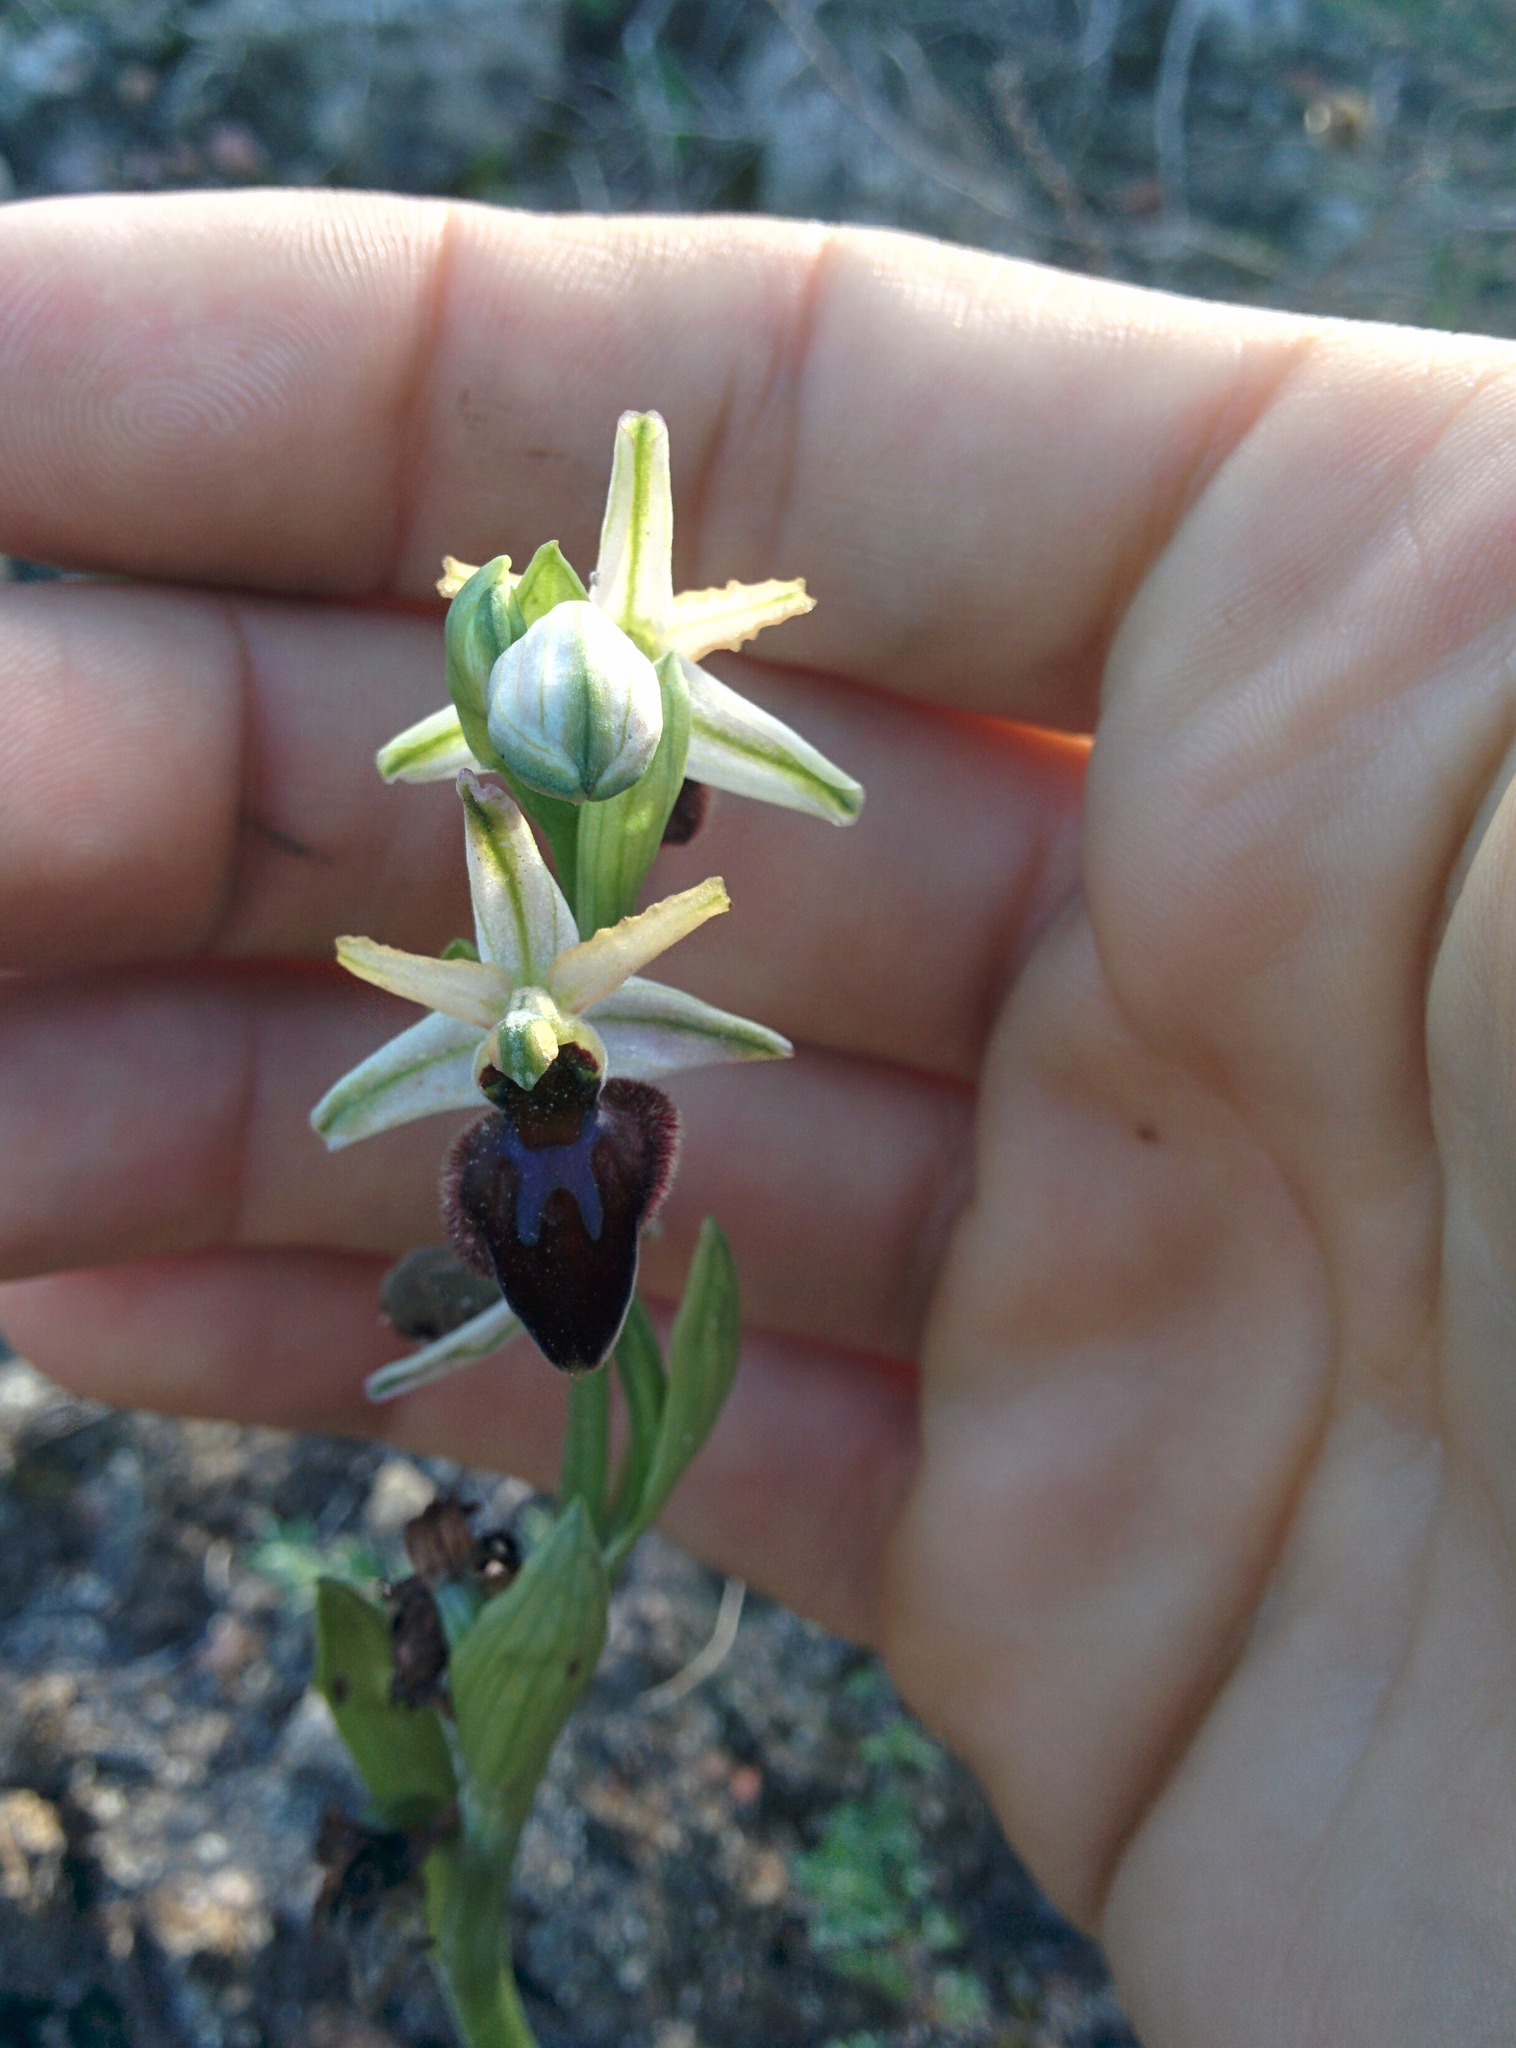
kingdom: Plantae
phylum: Tracheophyta
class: Liliopsida
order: Asparagales
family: Orchidaceae
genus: Ophrys
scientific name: Ophrys sphegodes
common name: Early spider-orchid
